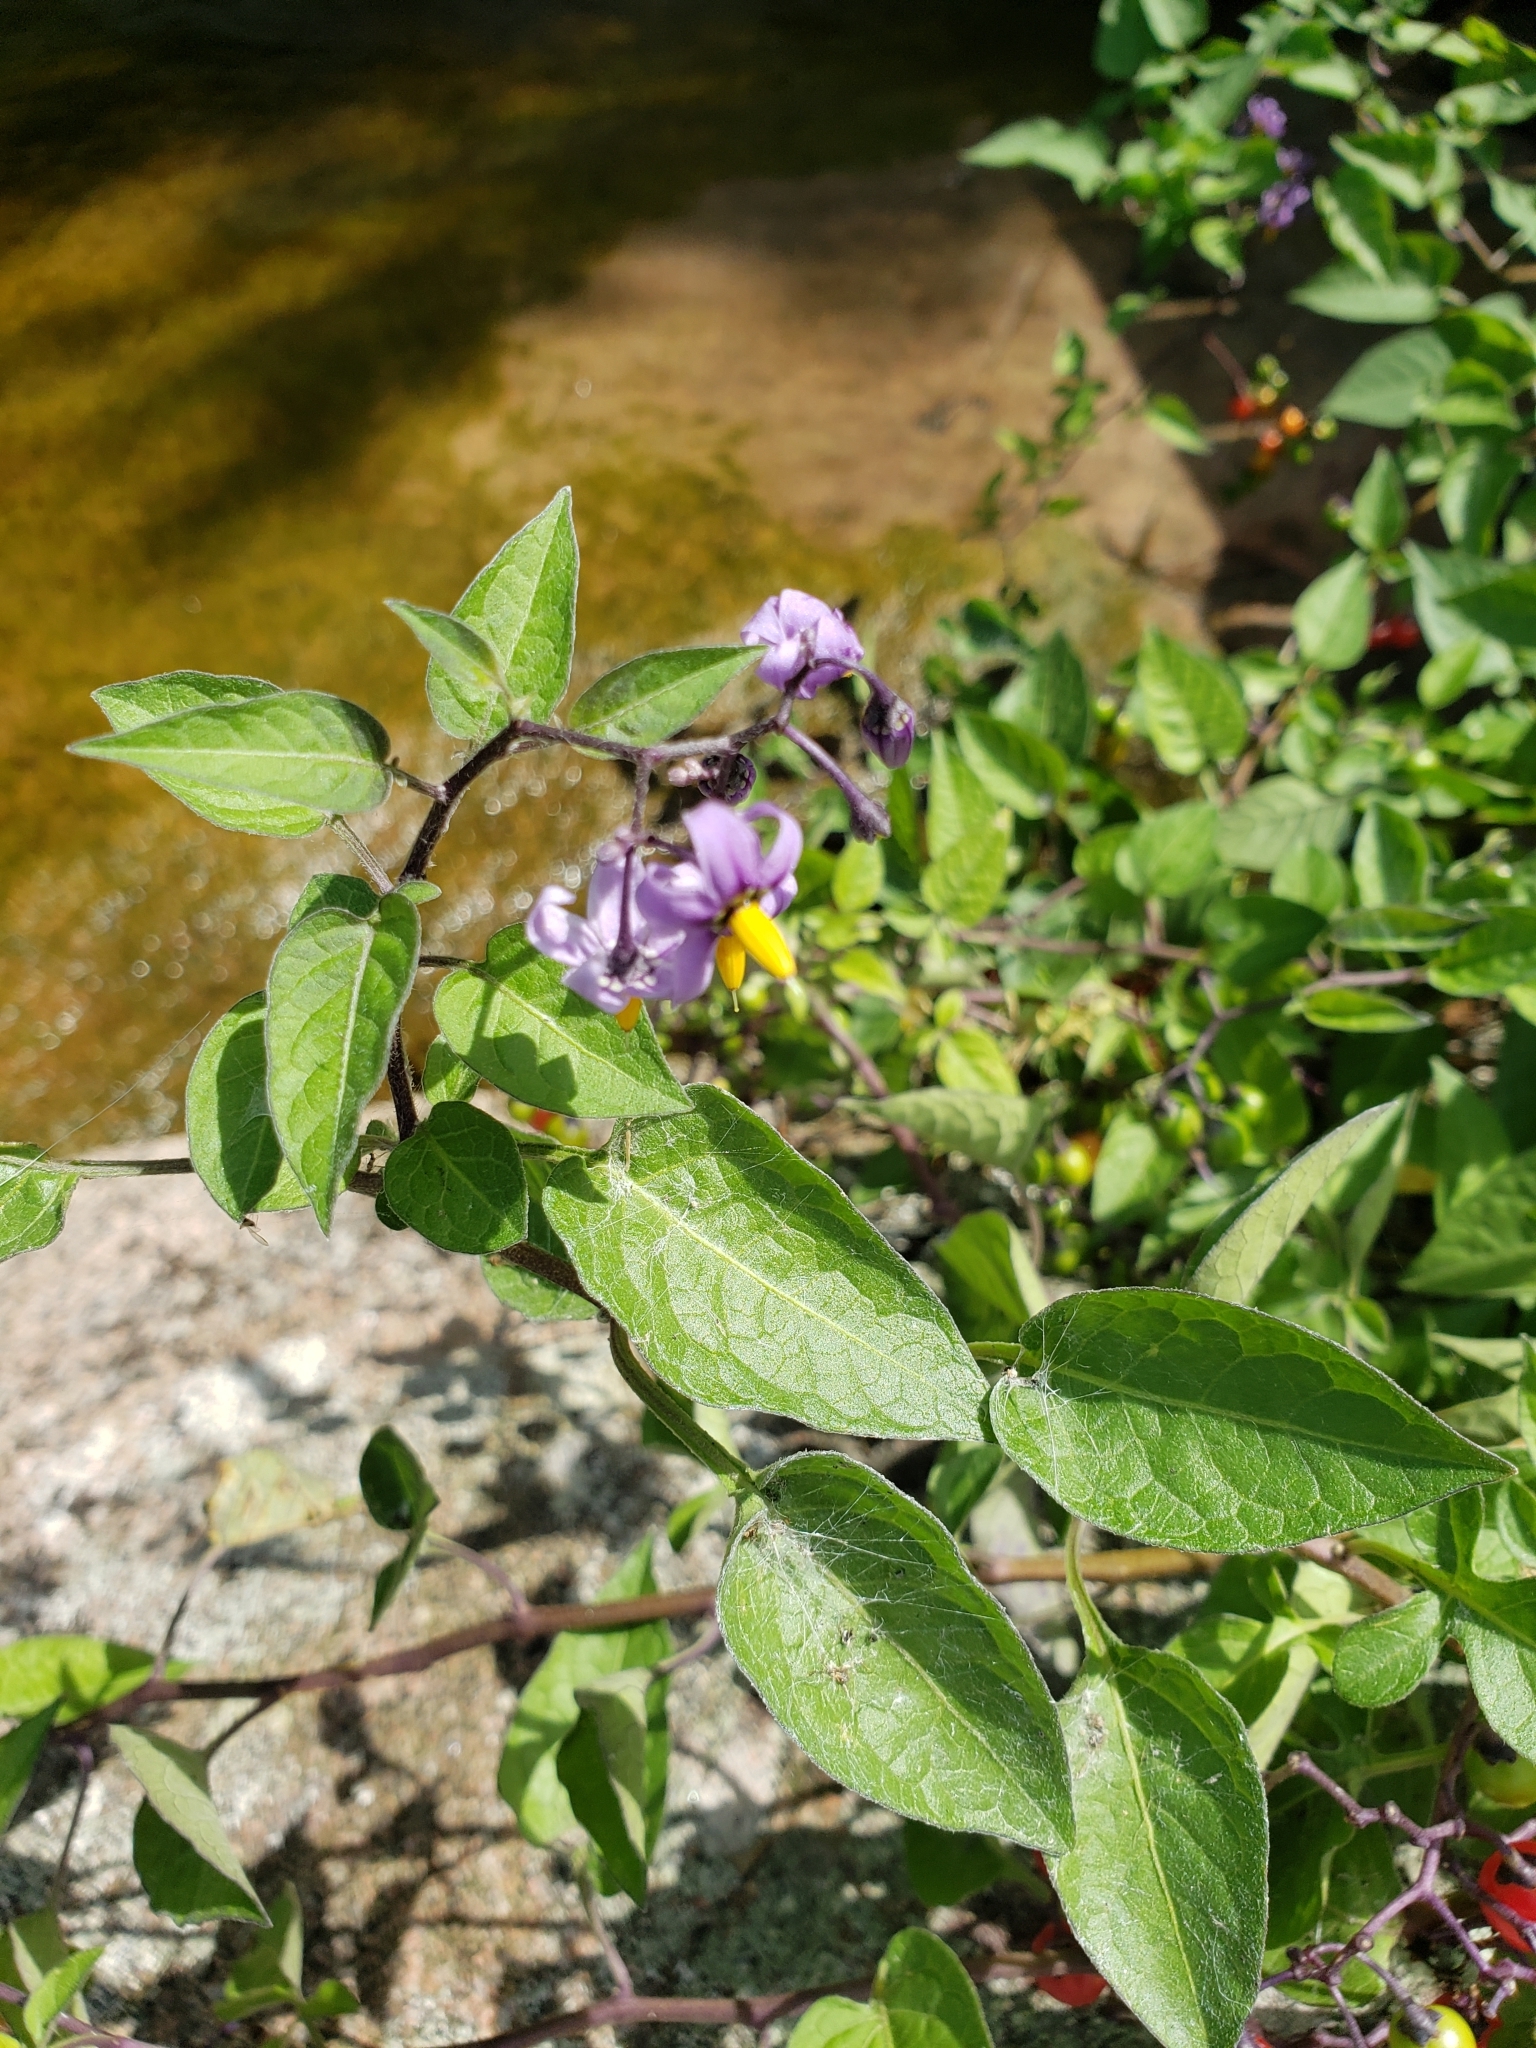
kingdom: Plantae
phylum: Tracheophyta
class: Magnoliopsida
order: Solanales
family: Solanaceae
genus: Solanum
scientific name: Solanum dulcamara
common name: Climbing nightshade
